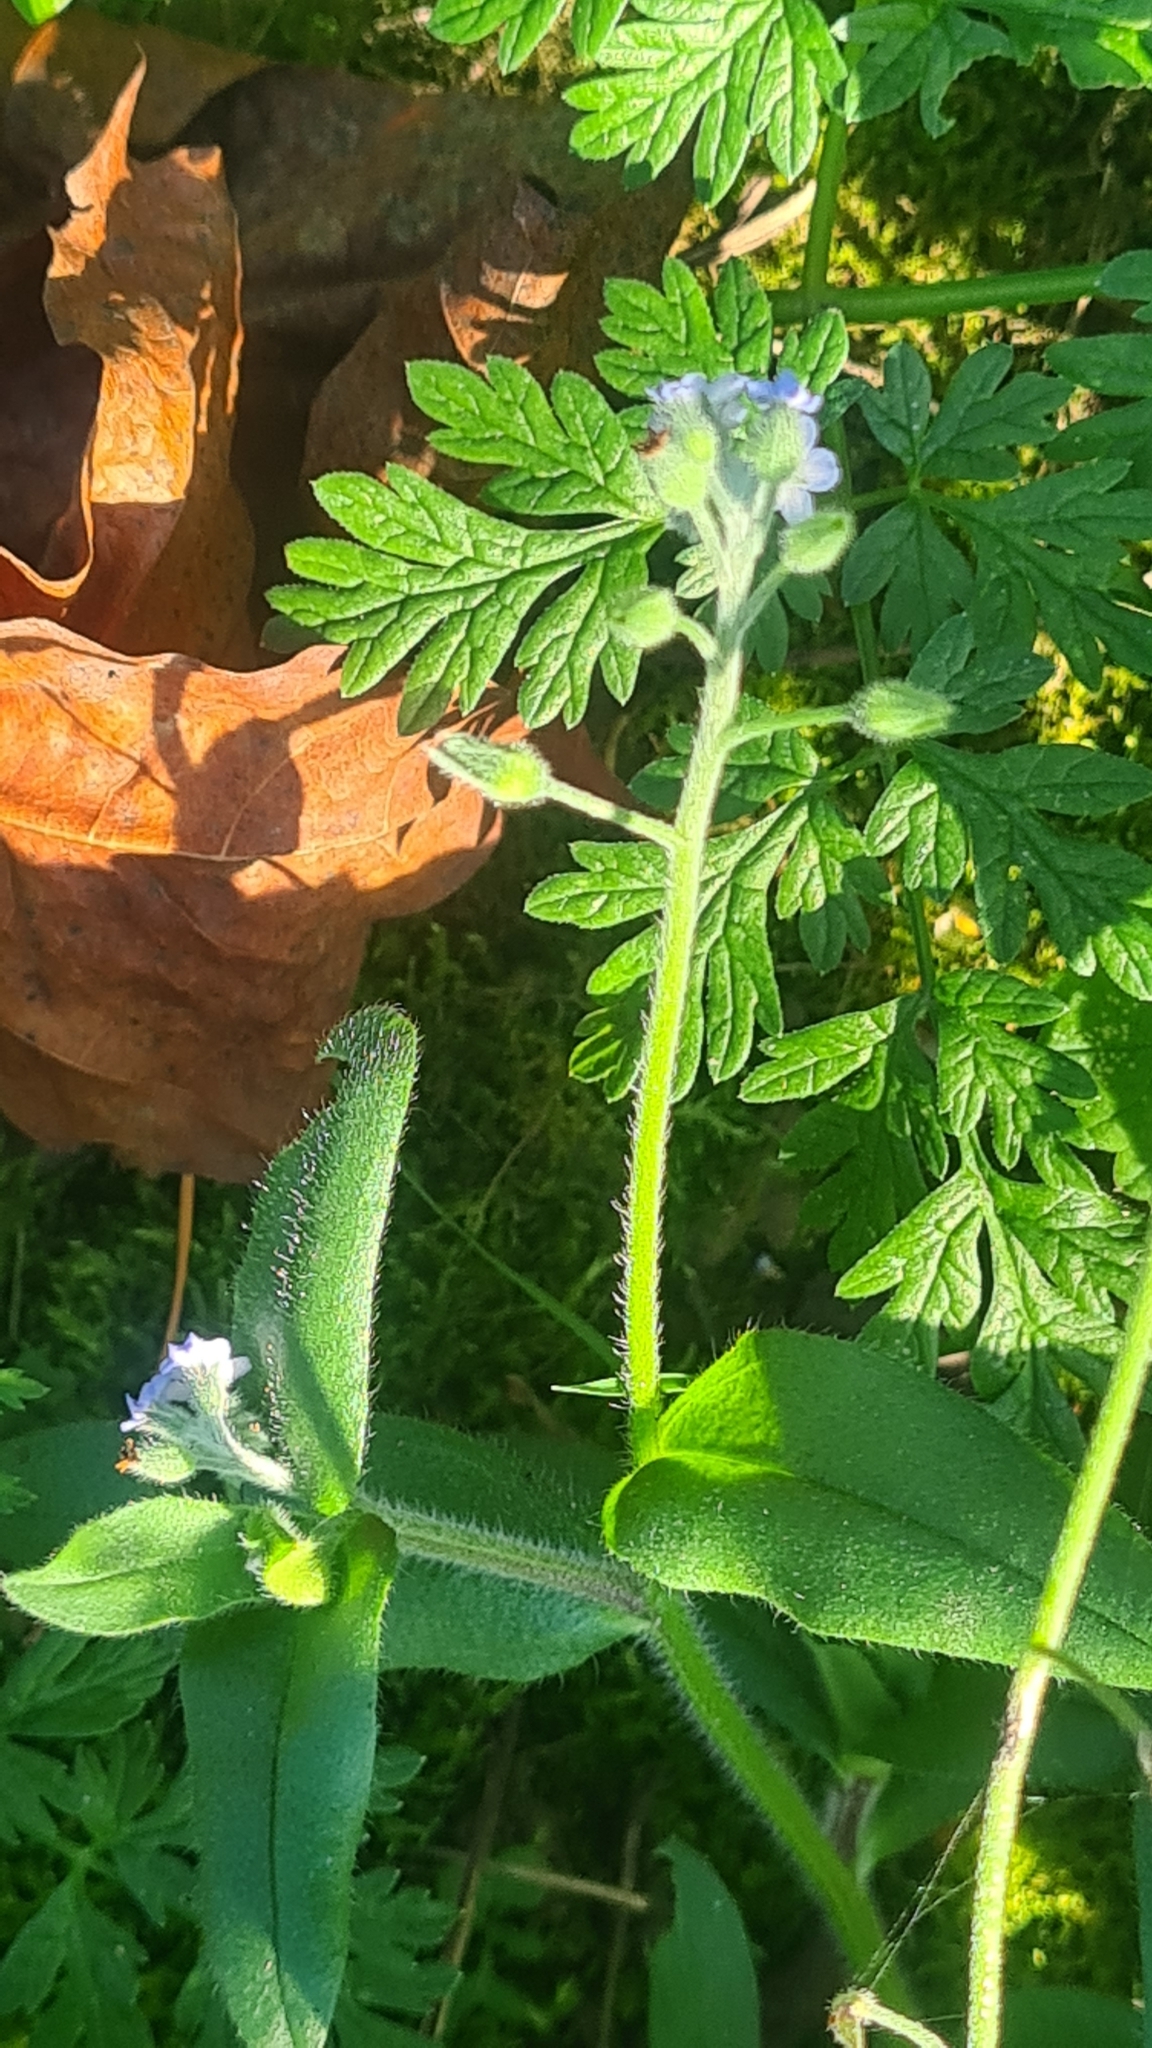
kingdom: Plantae
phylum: Tracheophyta
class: Magnoliopsida
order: Boraginales
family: Boraginaceae
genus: Myosotis
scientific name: Myosotis arvensis
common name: Field forget-me-not
